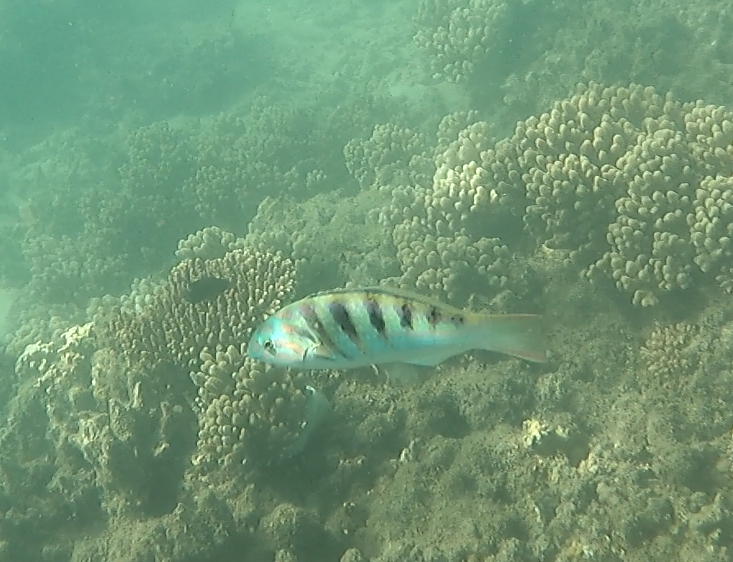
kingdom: Animalia
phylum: Chordata
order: Perciformes
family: Labridae
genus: Thalassoma
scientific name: Thalassoma hardwicke
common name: Sixbar wrasse
